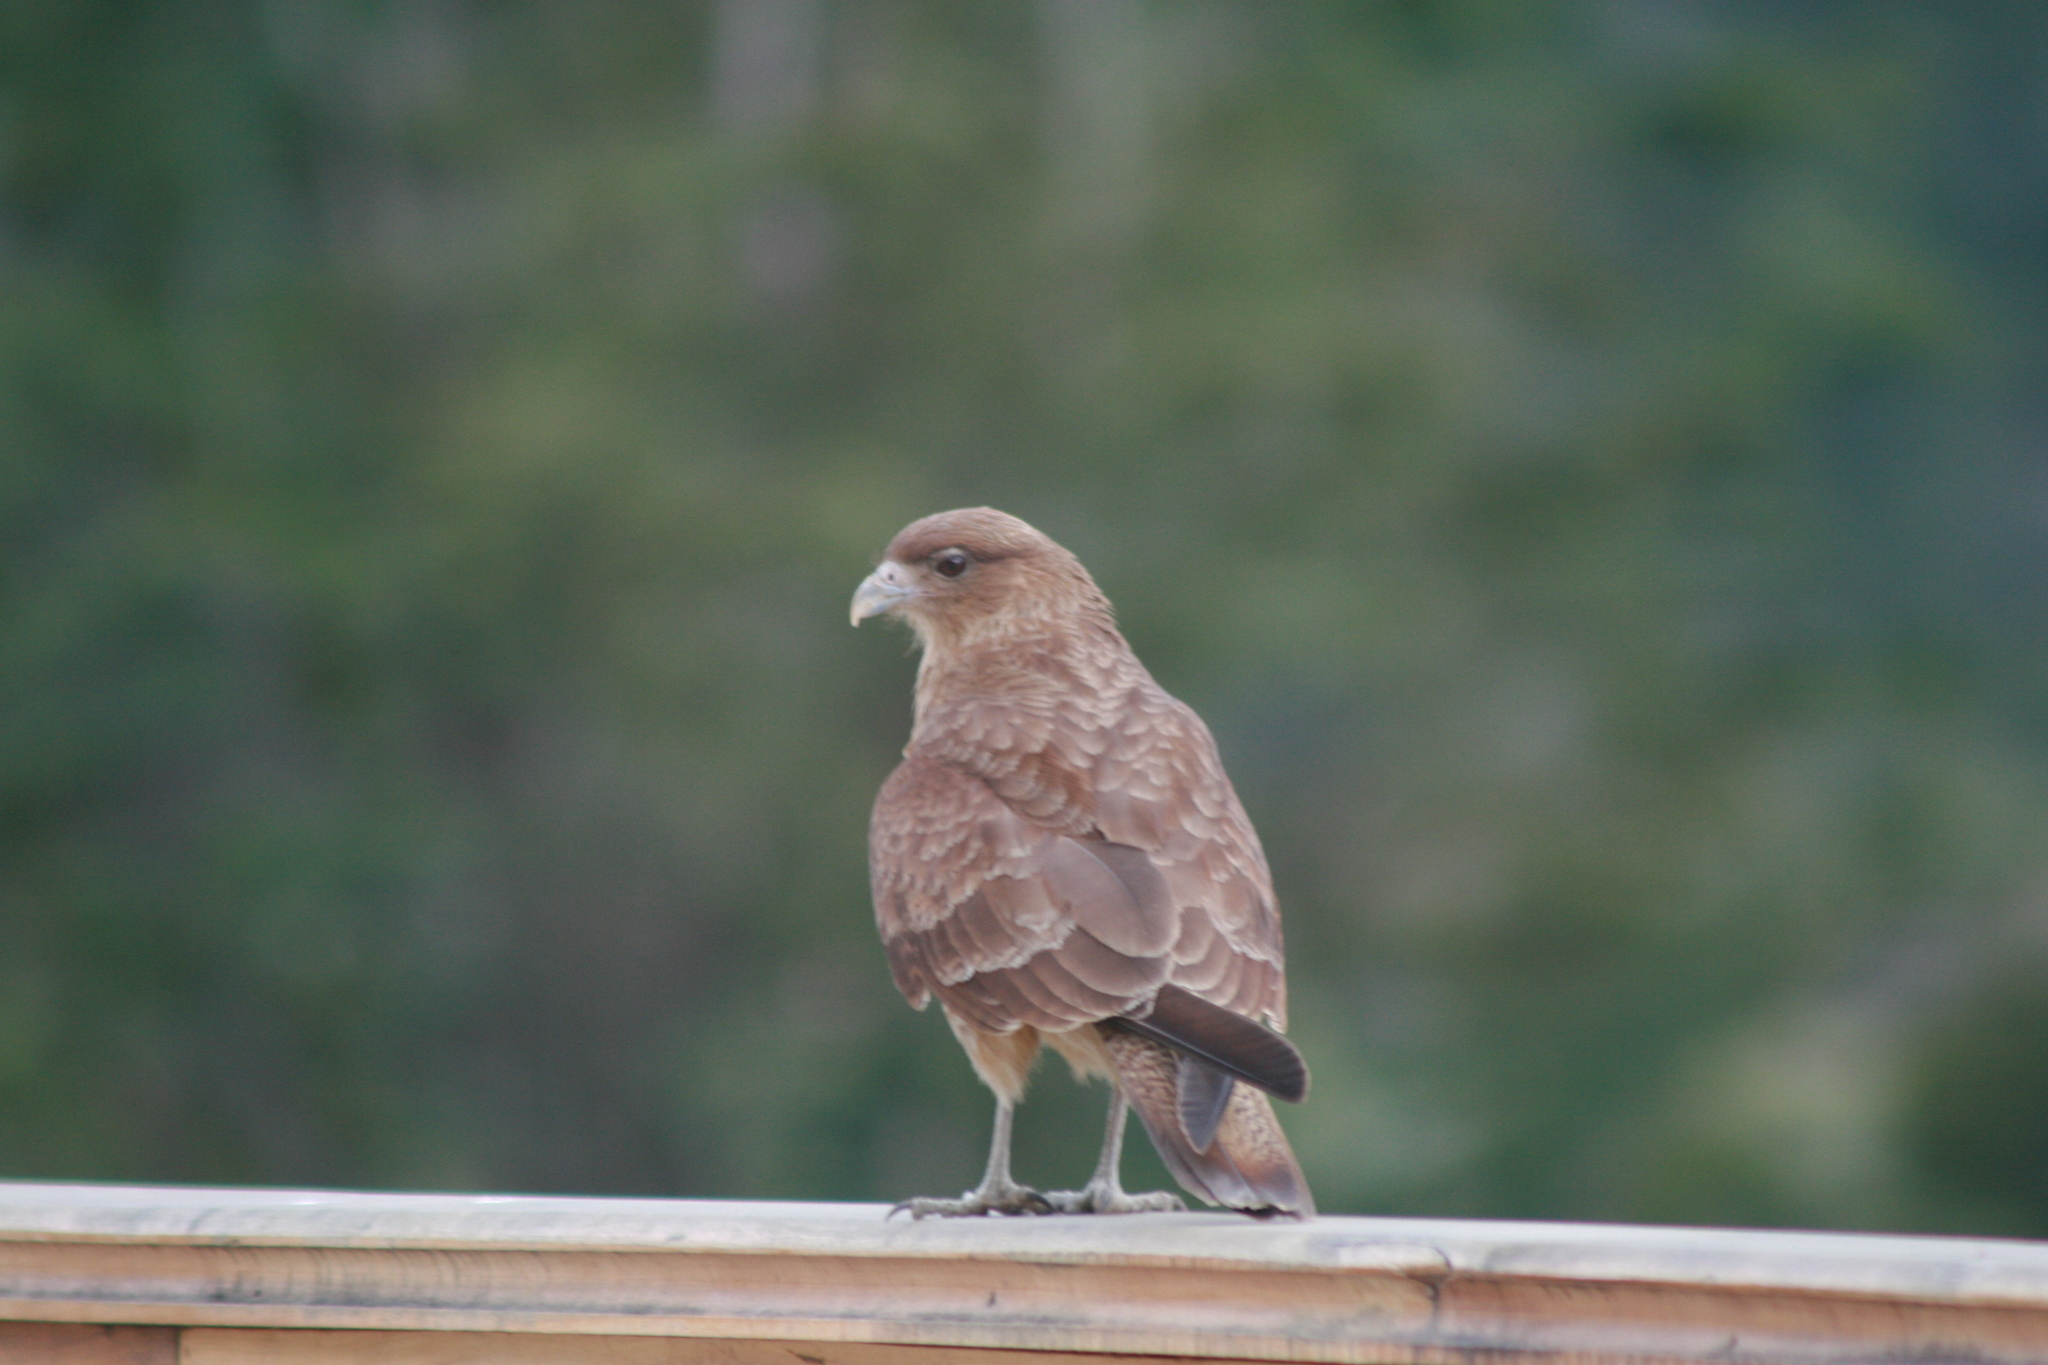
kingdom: Animalia
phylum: Chordata
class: Aves
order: Falconiformes
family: Falconidae
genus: Daptrius
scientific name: Daptrius
